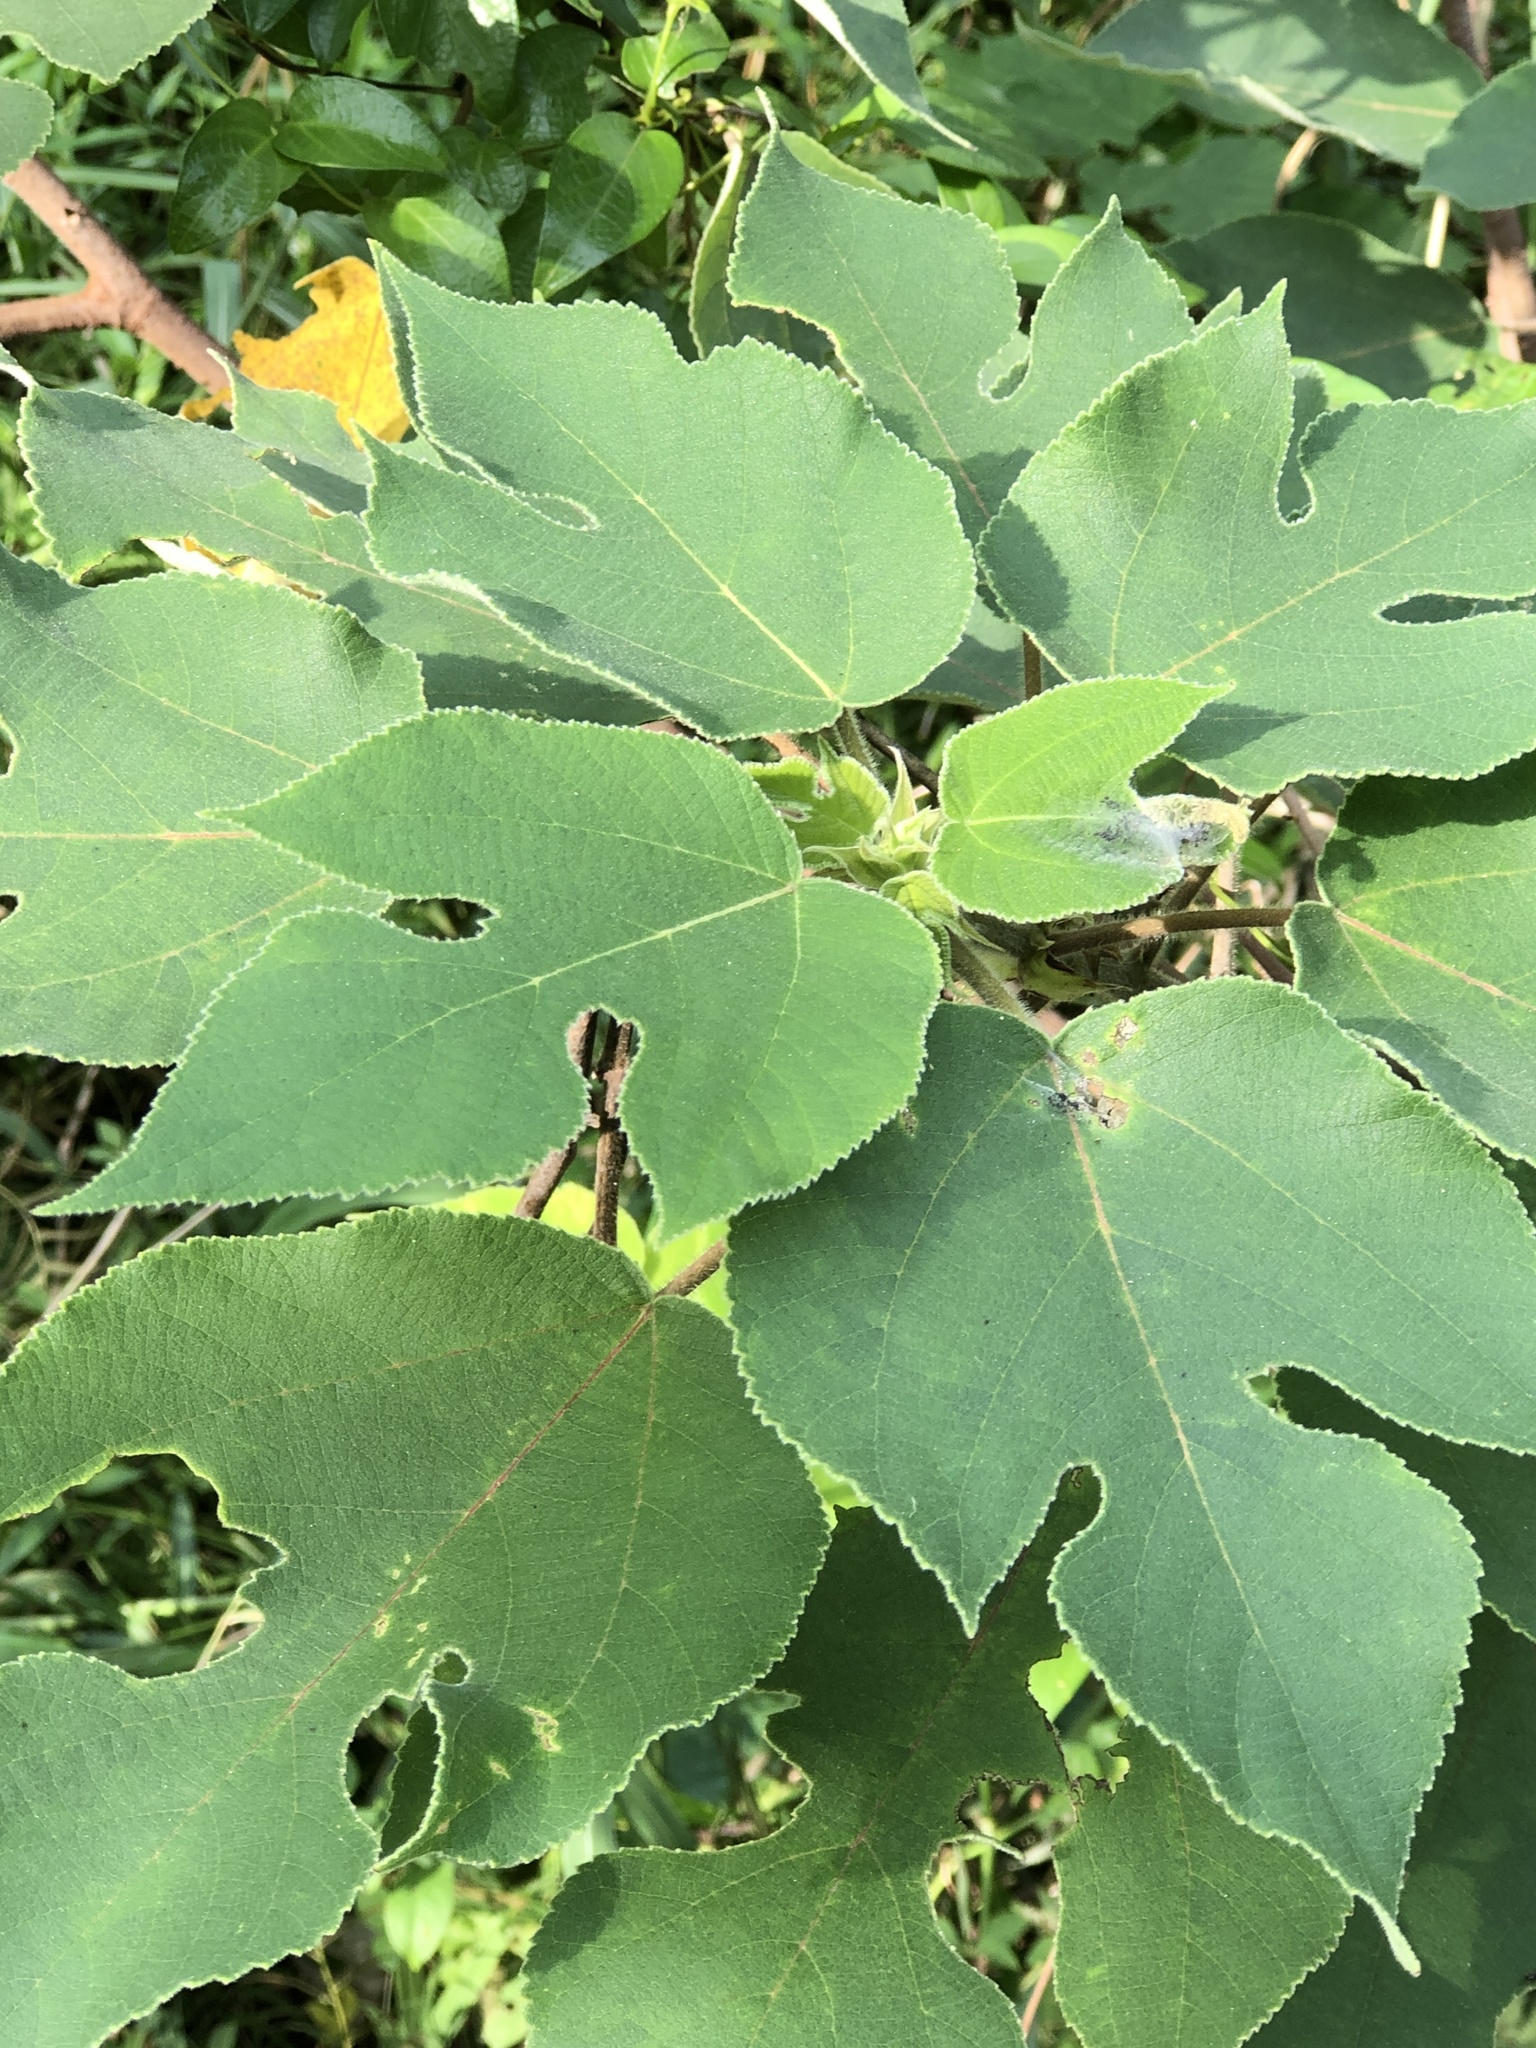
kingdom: Plantae
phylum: Tracheophyta
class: Magnoliopsida
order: Rosales
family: Moraceae
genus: Broussonetia
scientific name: Broussonetia papyrifera
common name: Paper mulberry
